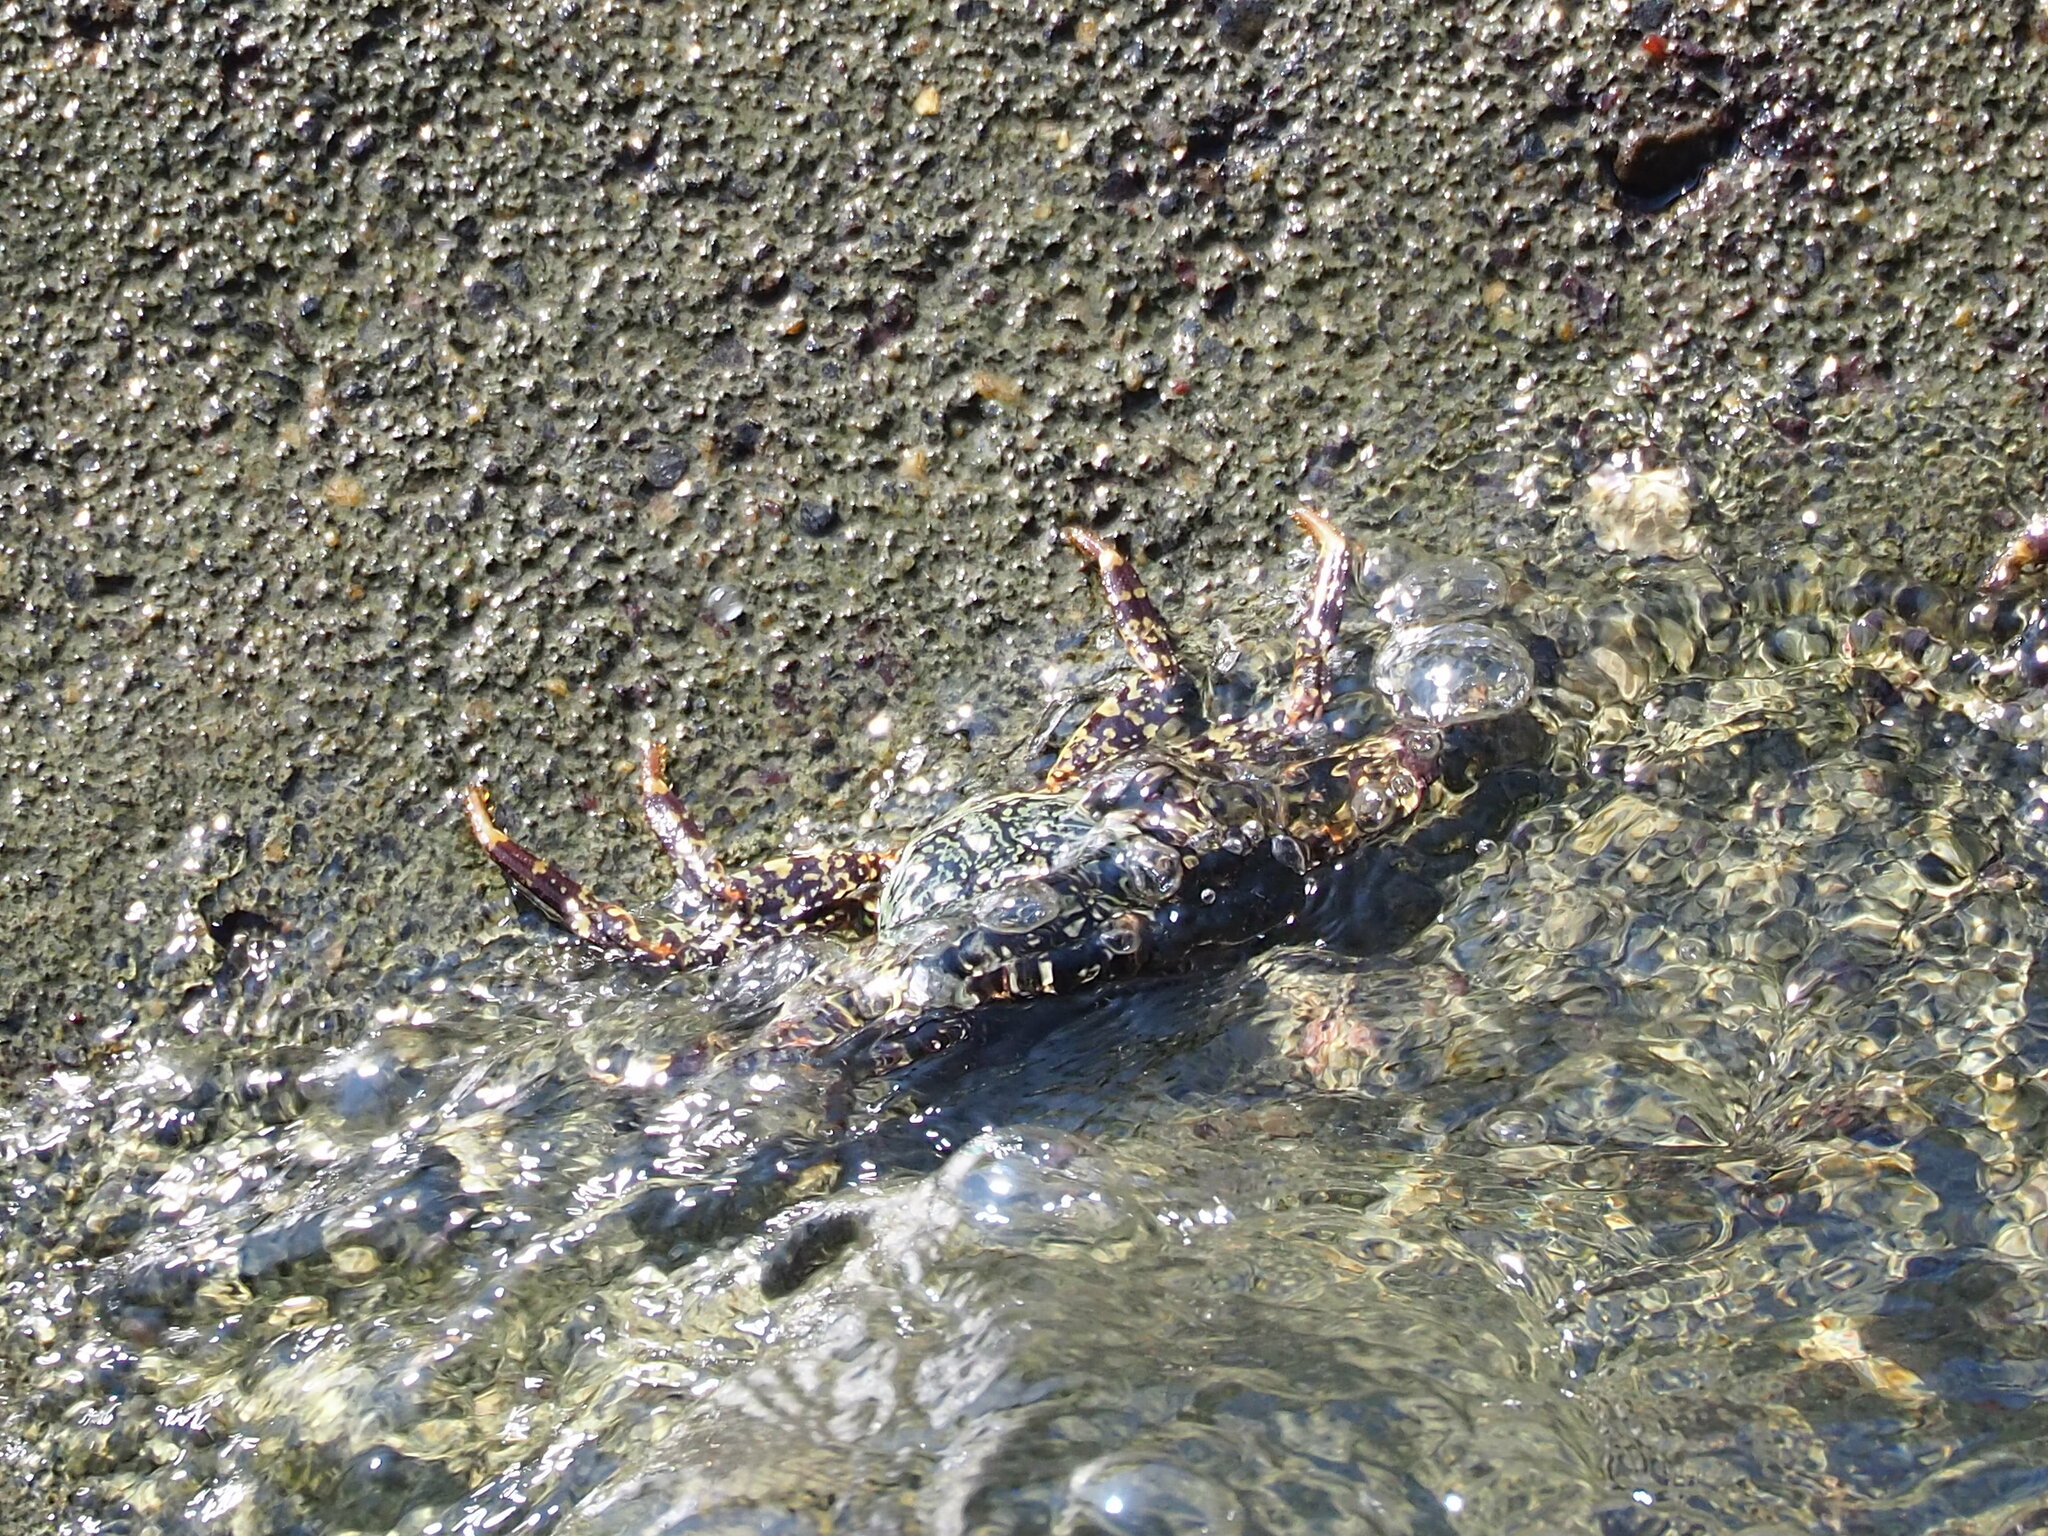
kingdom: Animalia
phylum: Arthropoda
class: Malacostraca
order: Decapoda
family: Grapsidae
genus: Grapsus
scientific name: Grapsus albolineatus
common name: Mottled lightfoot crab
